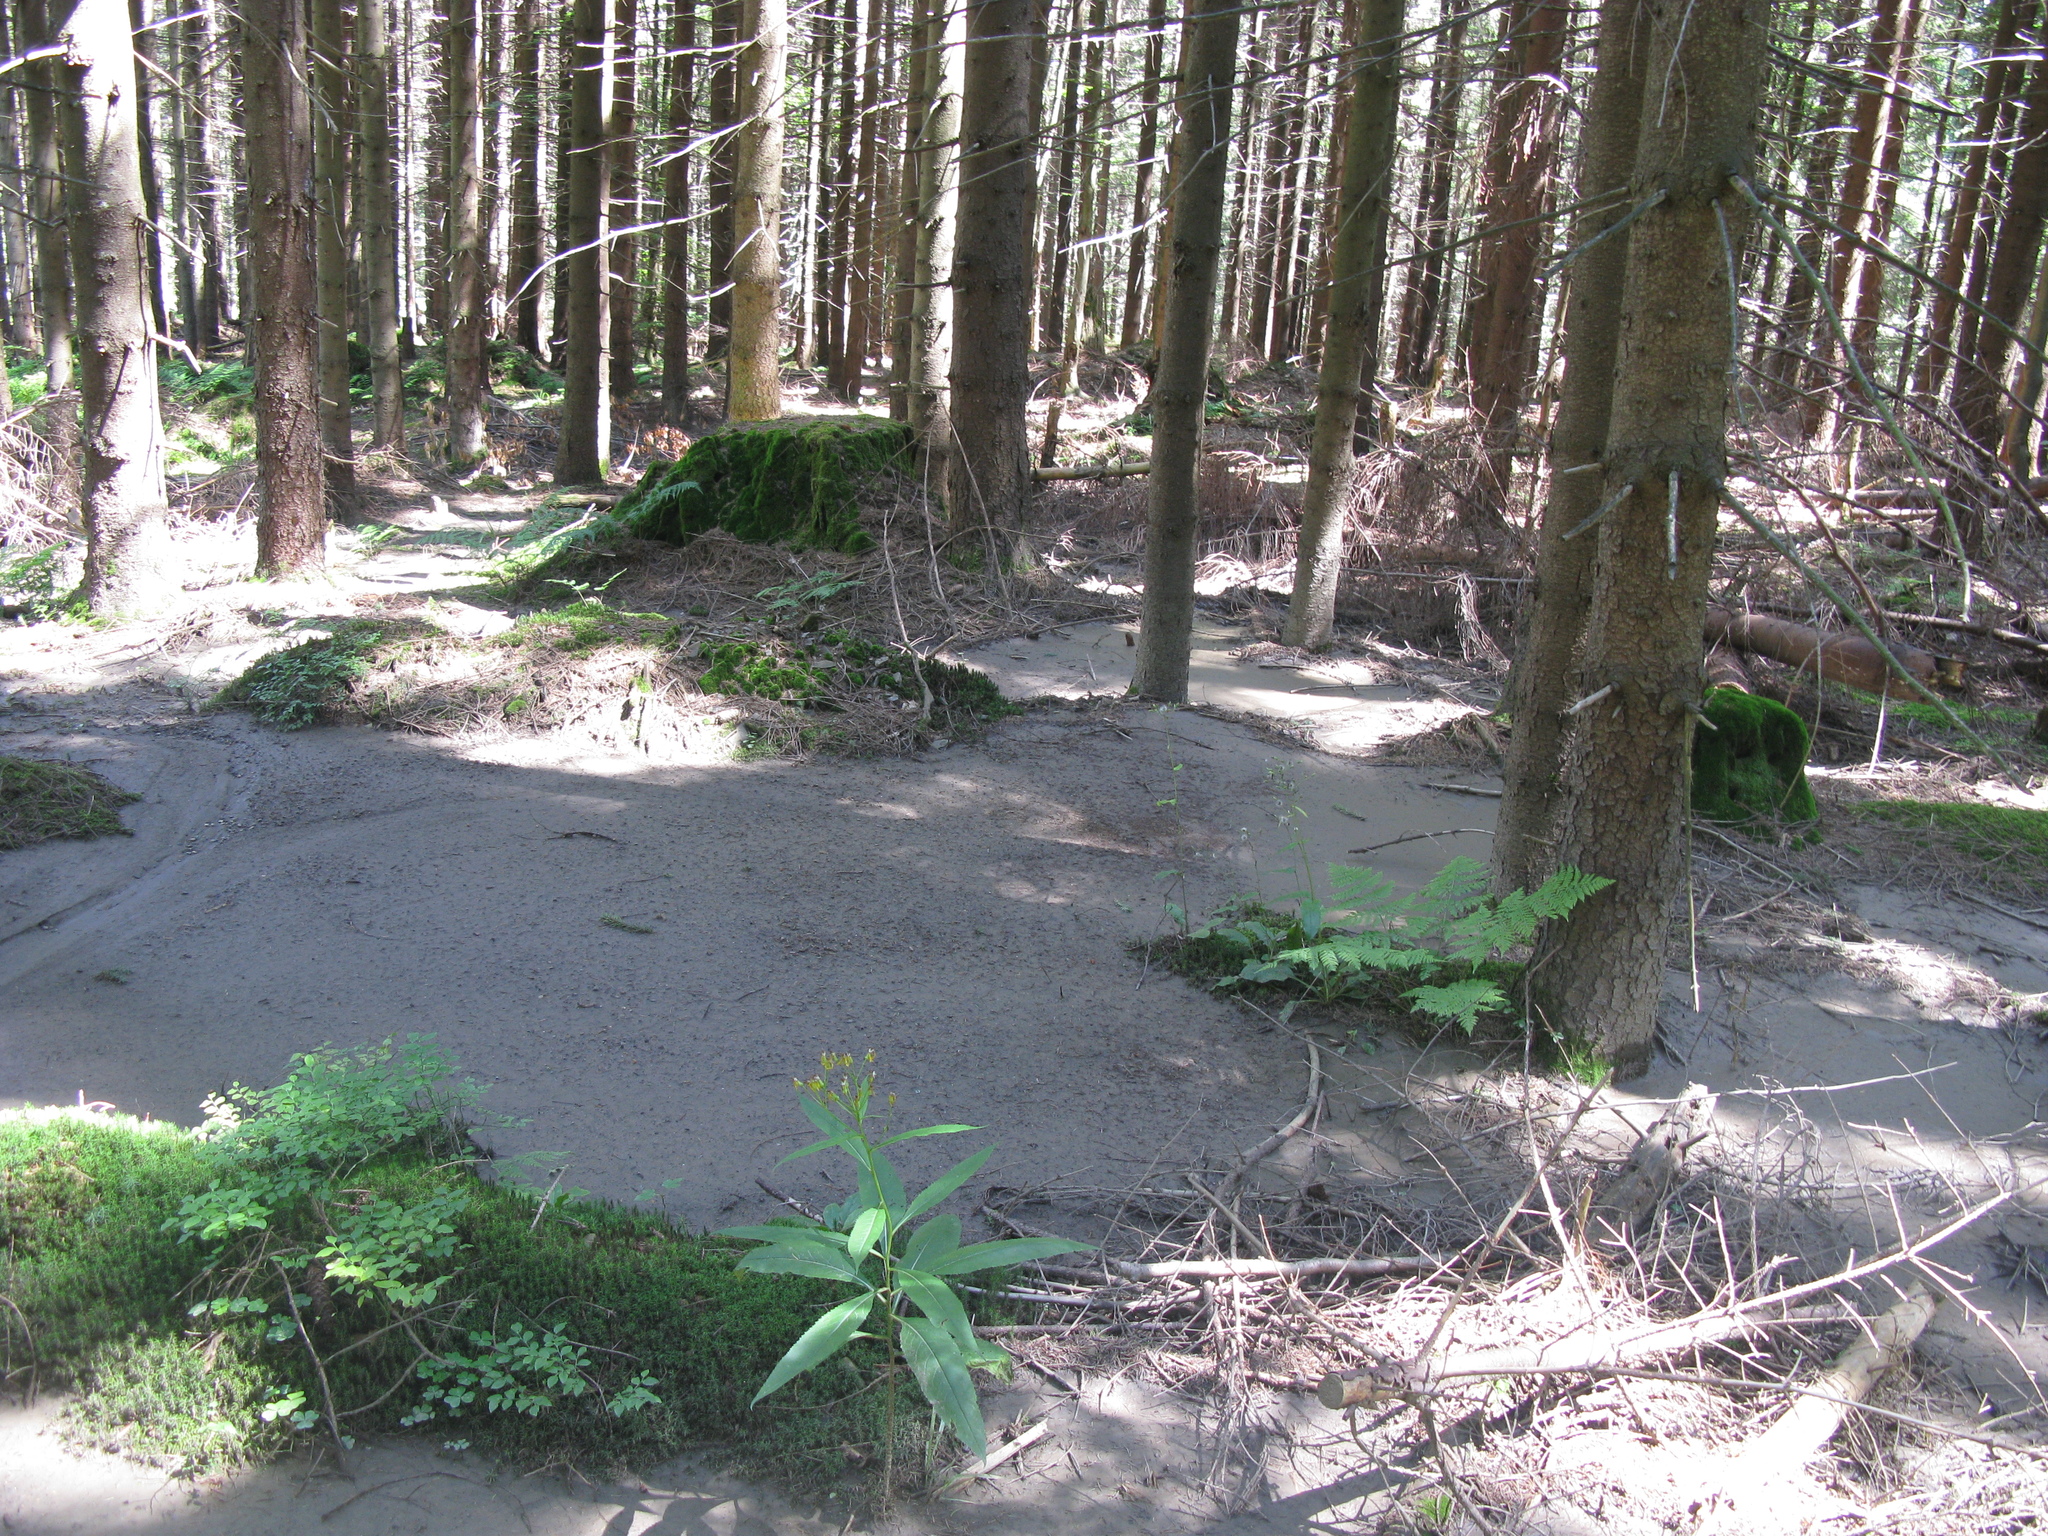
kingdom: Plantae
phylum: Tracheophyta
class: Magnoliopsida
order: Asterales
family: Asteraceae
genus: Senecio
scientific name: Senecio ovatus
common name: Wood ragwort
